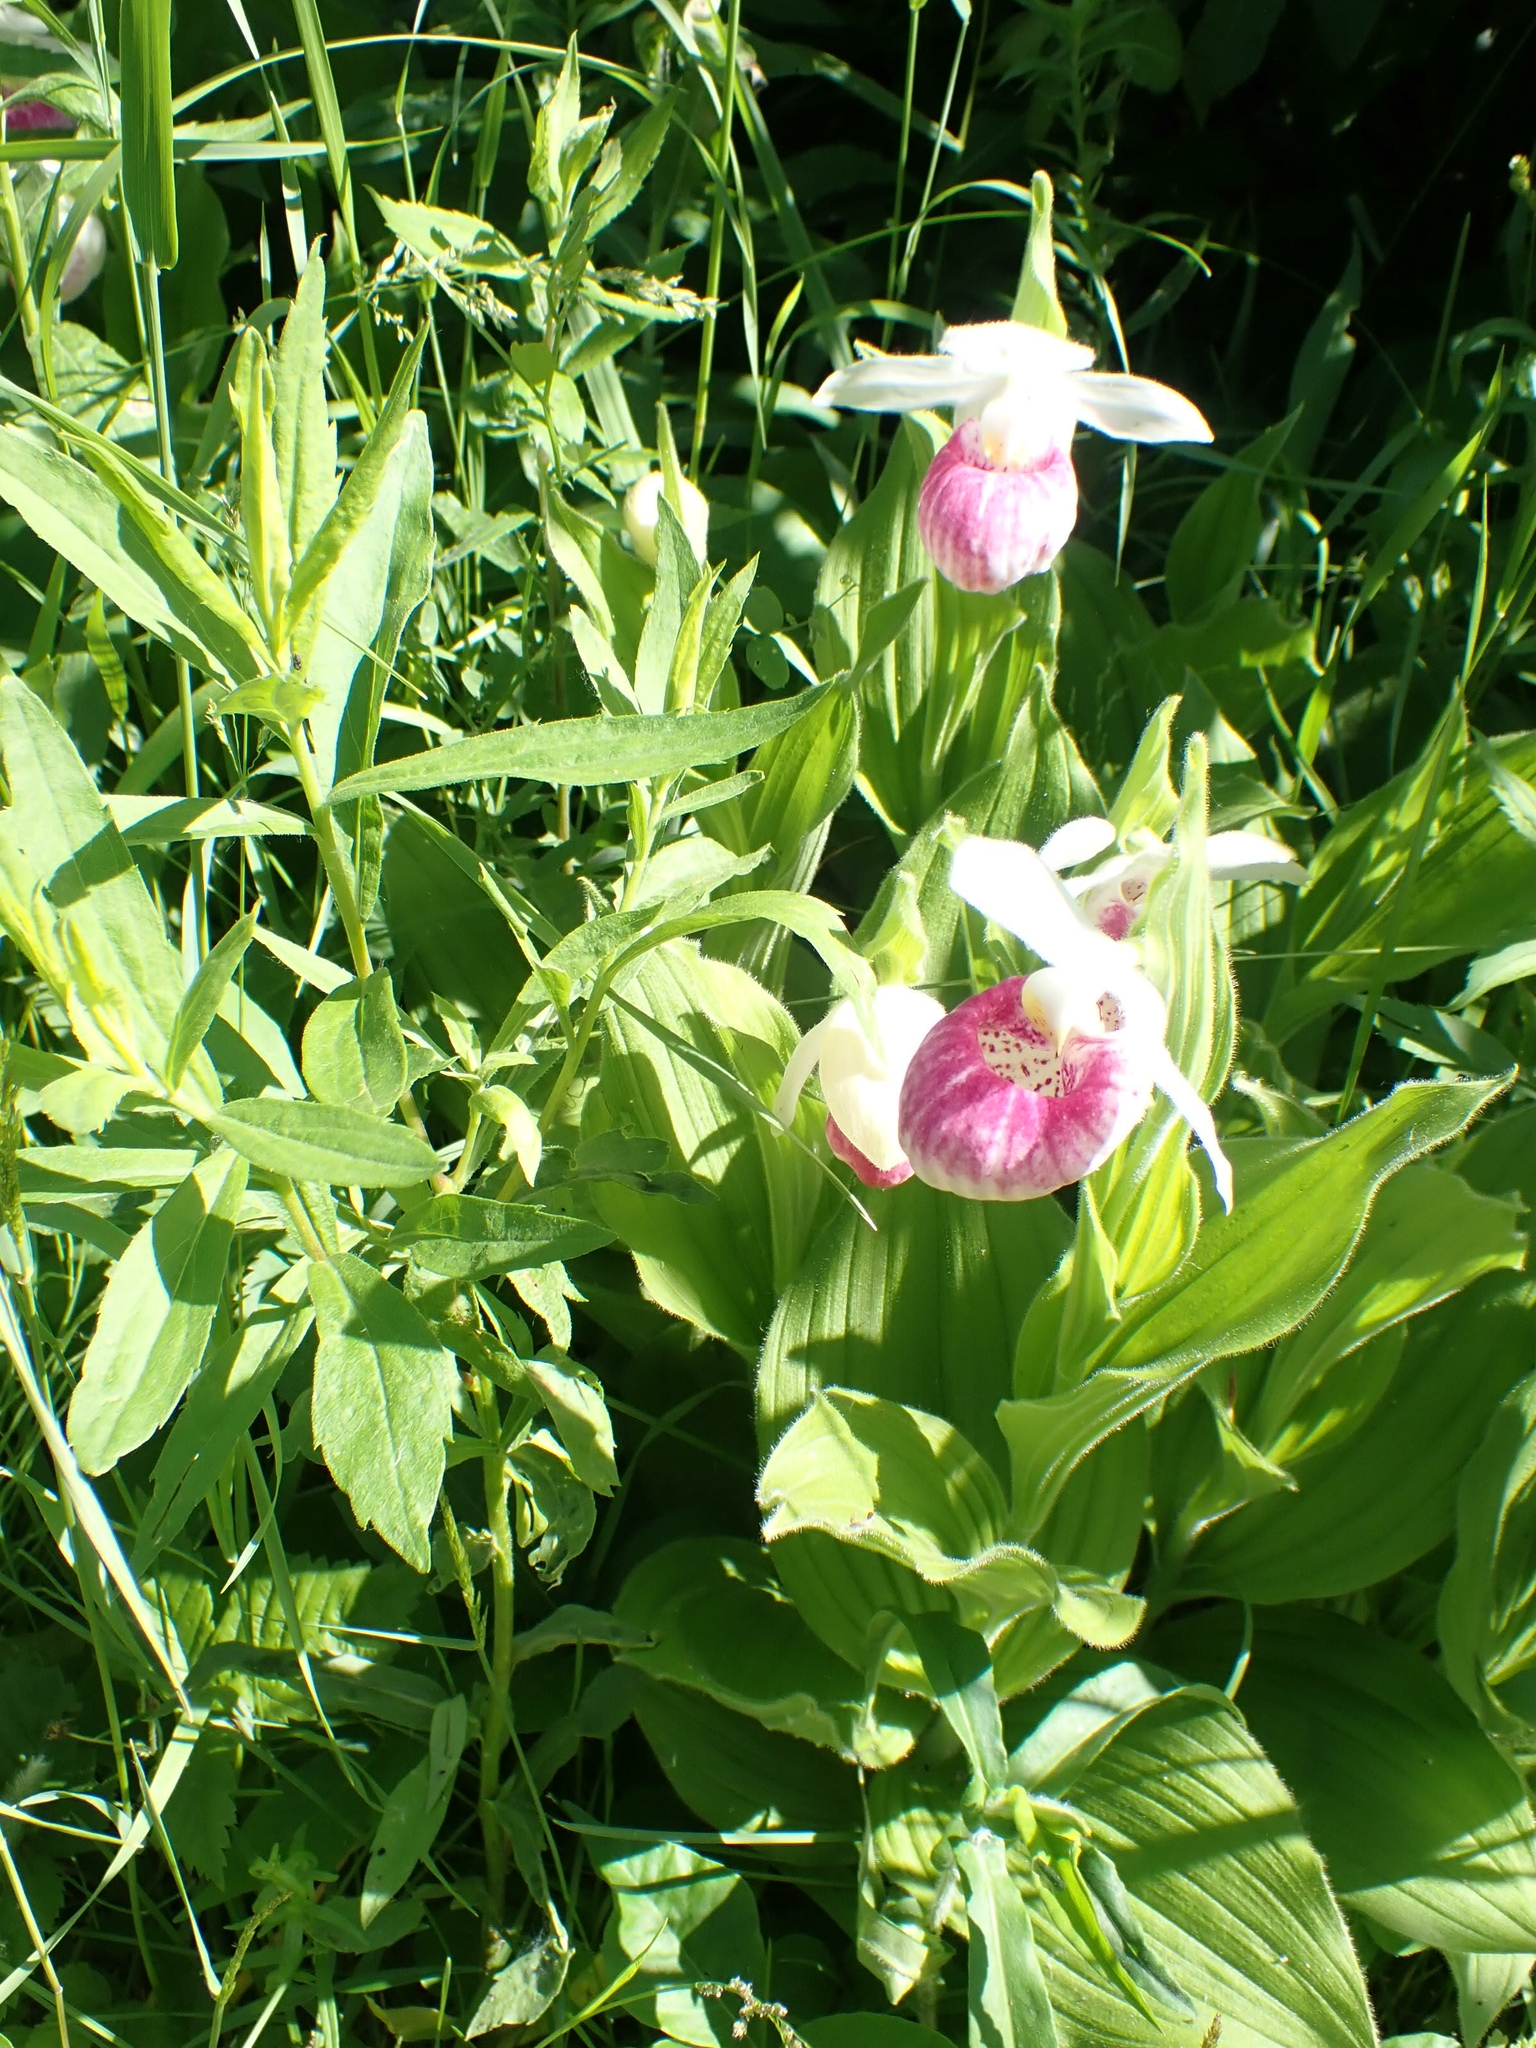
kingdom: Plantae
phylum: Tracheophyta
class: Liliopsida
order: Asparagales
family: Orchidaceae
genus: Cypripedium
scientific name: Cypripedium reginae
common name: Queen lady's-slipper
